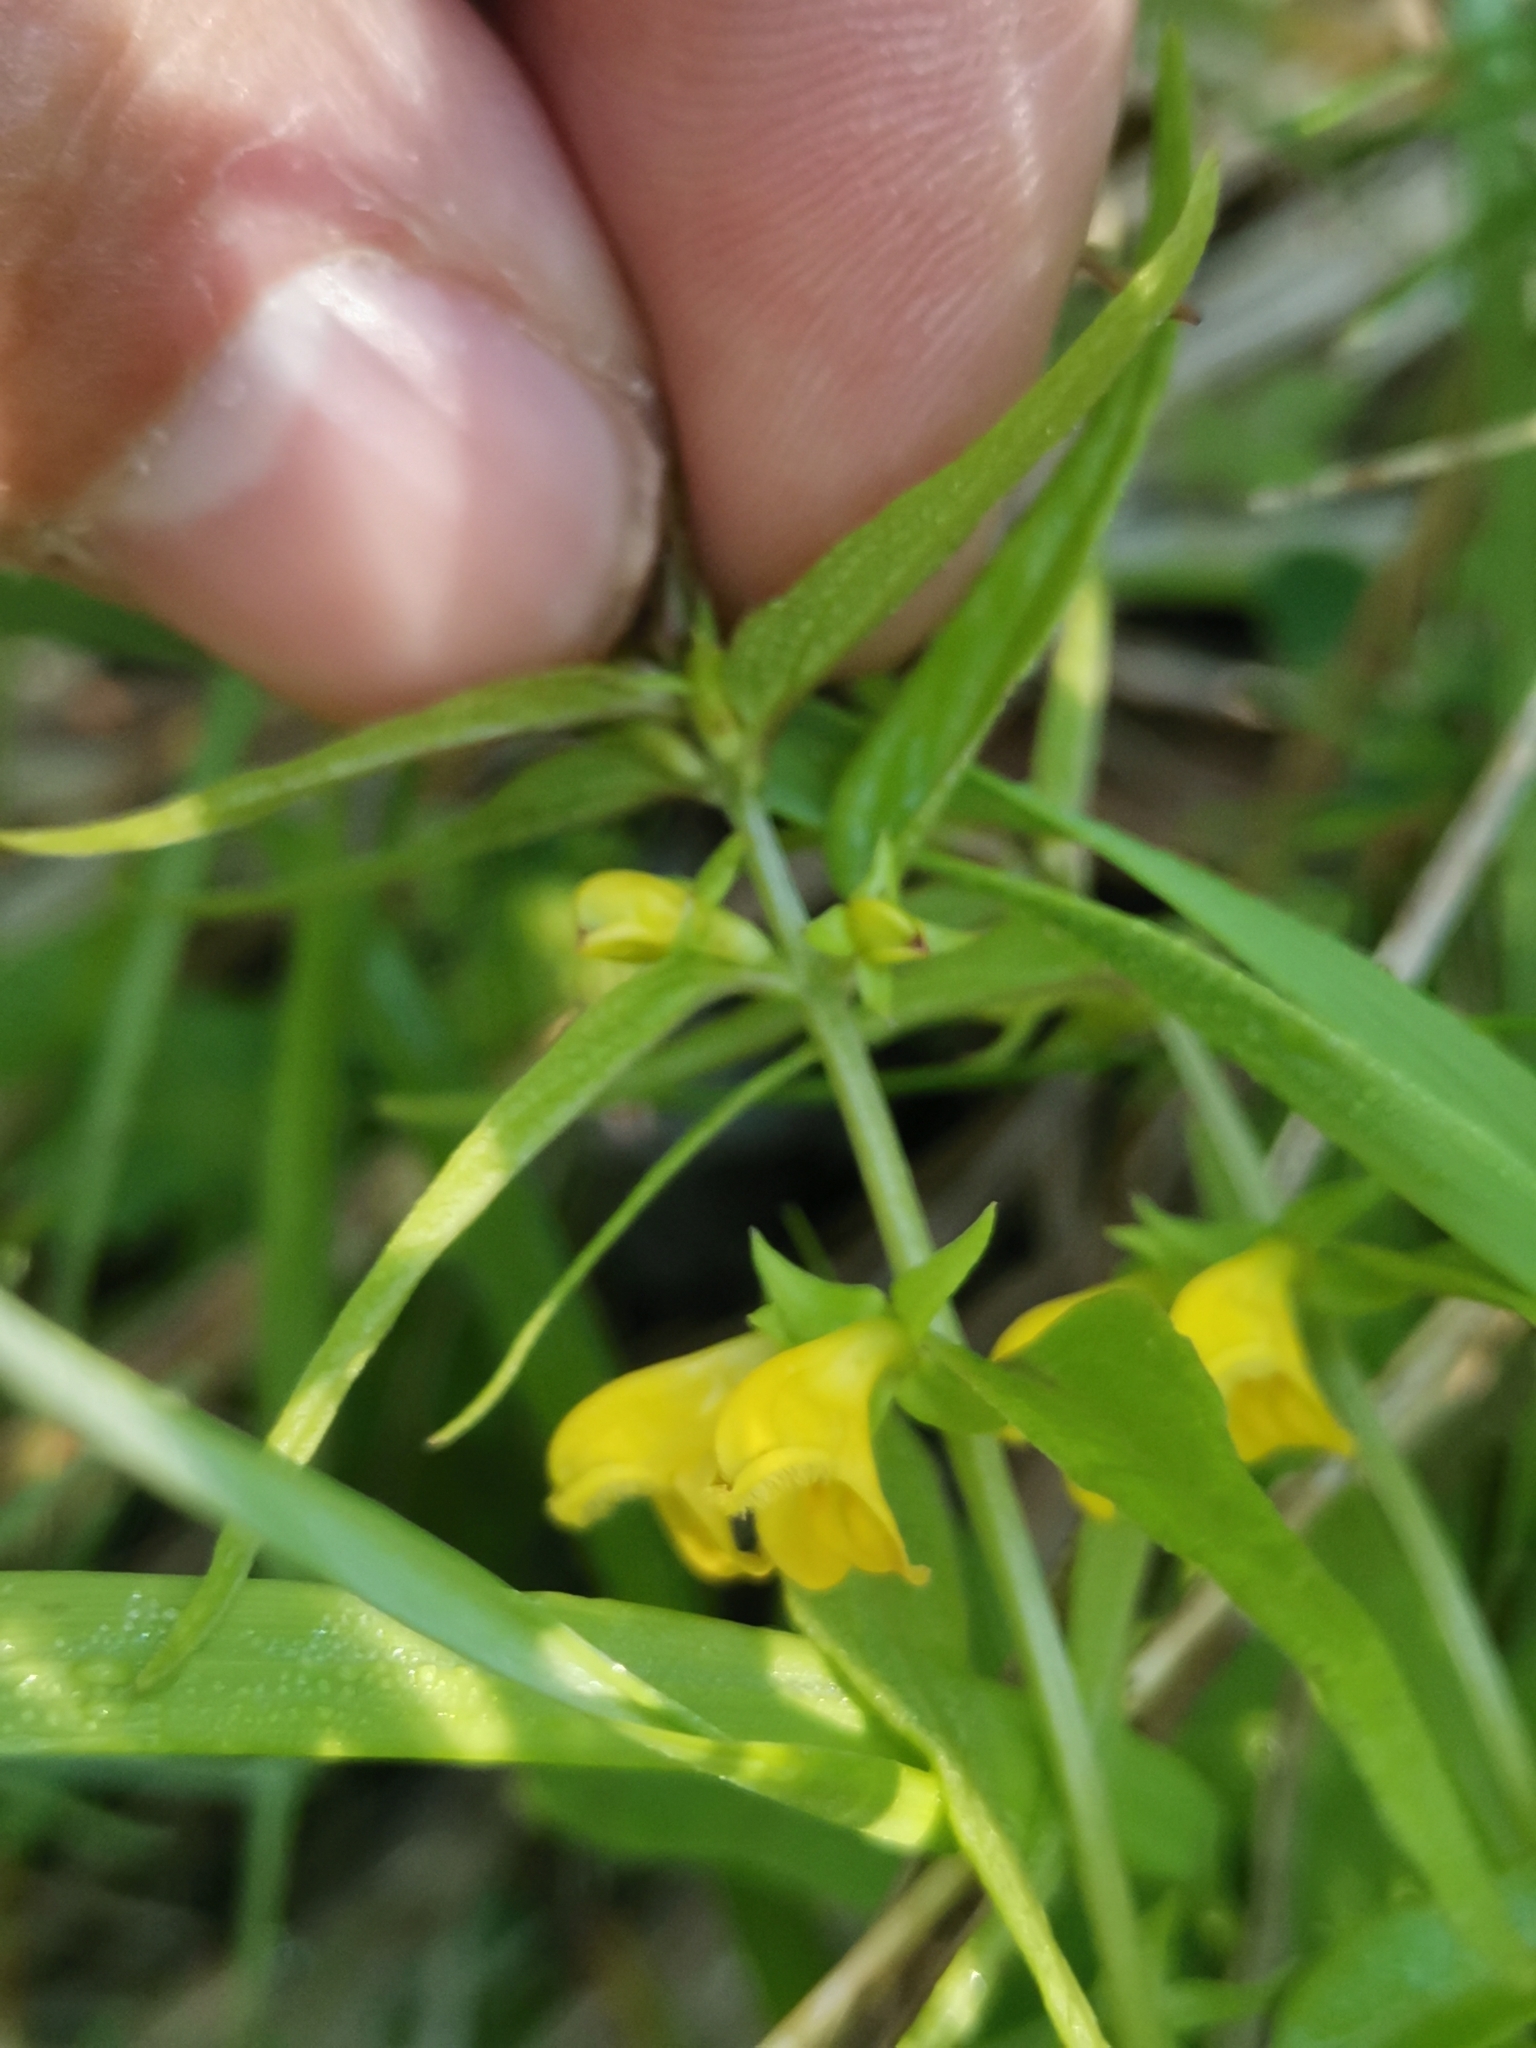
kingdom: Plantae
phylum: Tracheophyta
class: Magnoliopsida
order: Lamiales
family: Orobanchaceae
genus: Melampyrum
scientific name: Melampyrum sylvaticum
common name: Small cow-wheat
